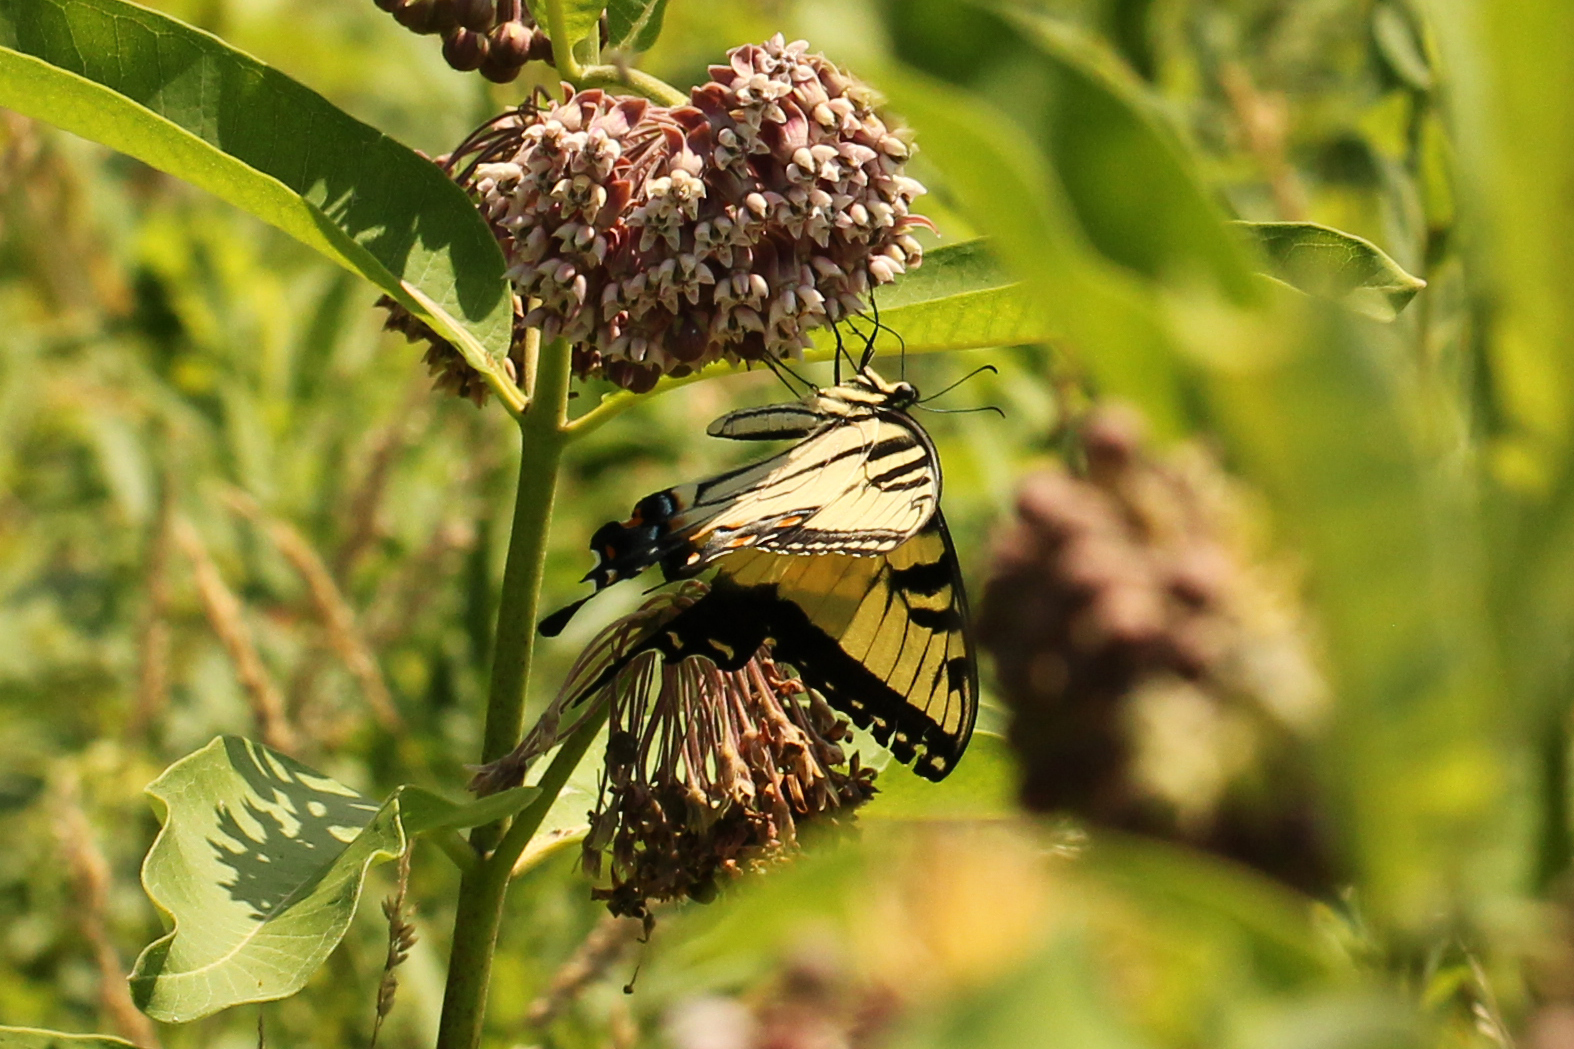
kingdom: Animalia
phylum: Arthropoda
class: Insecta
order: Lepidoptera
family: Papilionidae
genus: Papilio
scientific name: Papilio glaucus
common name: Tiger swallowtail
